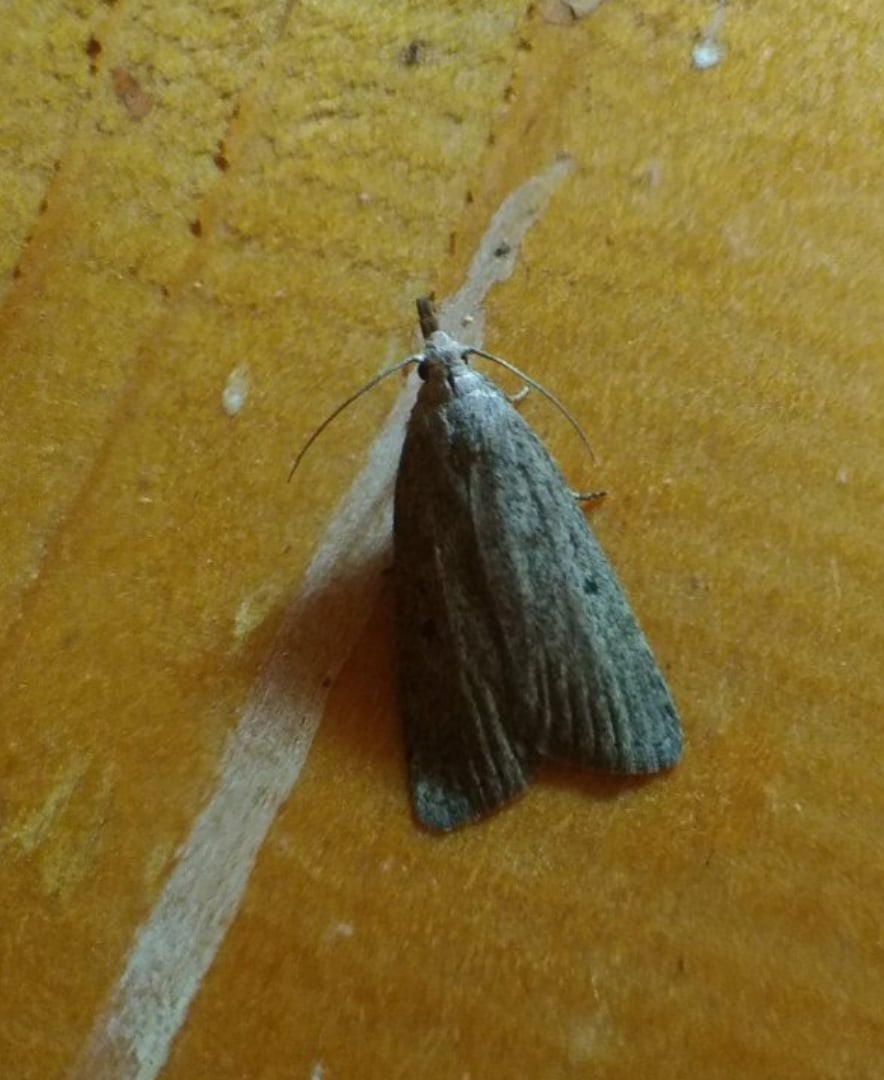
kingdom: Animalia
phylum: Arthropoda
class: Insecta
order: Lepidoptera
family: Pyralidae
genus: Aphomia
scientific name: Aphomia sociella
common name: Bee moth
